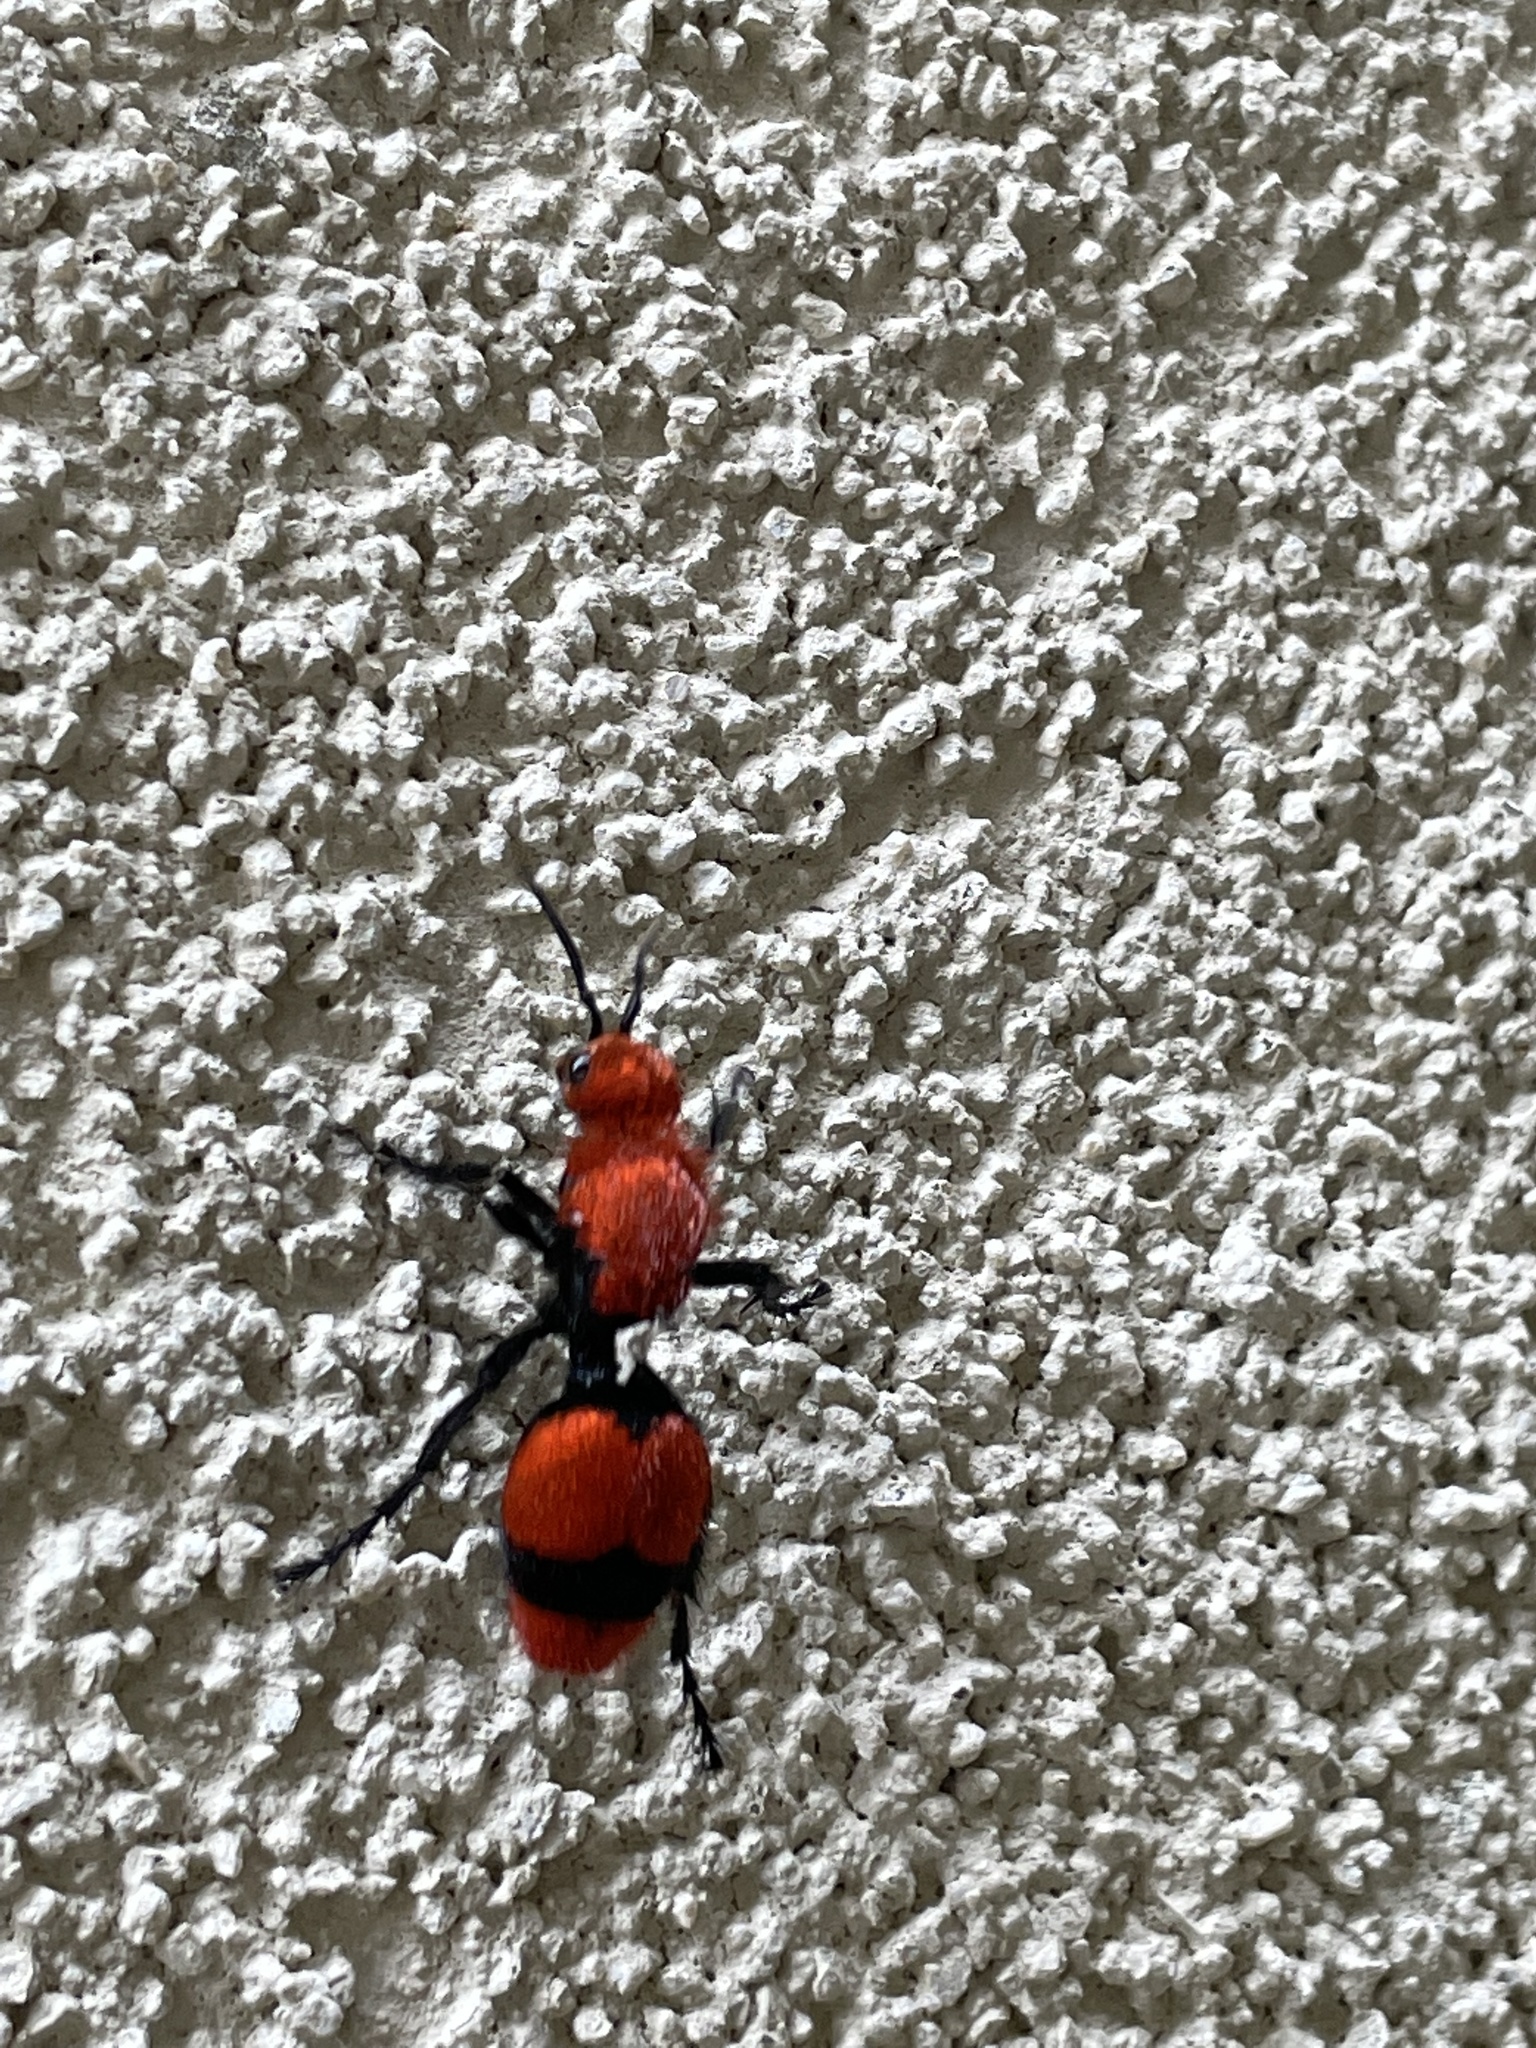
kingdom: Animalia
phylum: Arthropoda
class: Insecta
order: Hymenoptera
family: Mutillidae
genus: Dasymutilla
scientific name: Dasymutilla occidentalis
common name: Common eastern velvet ant
